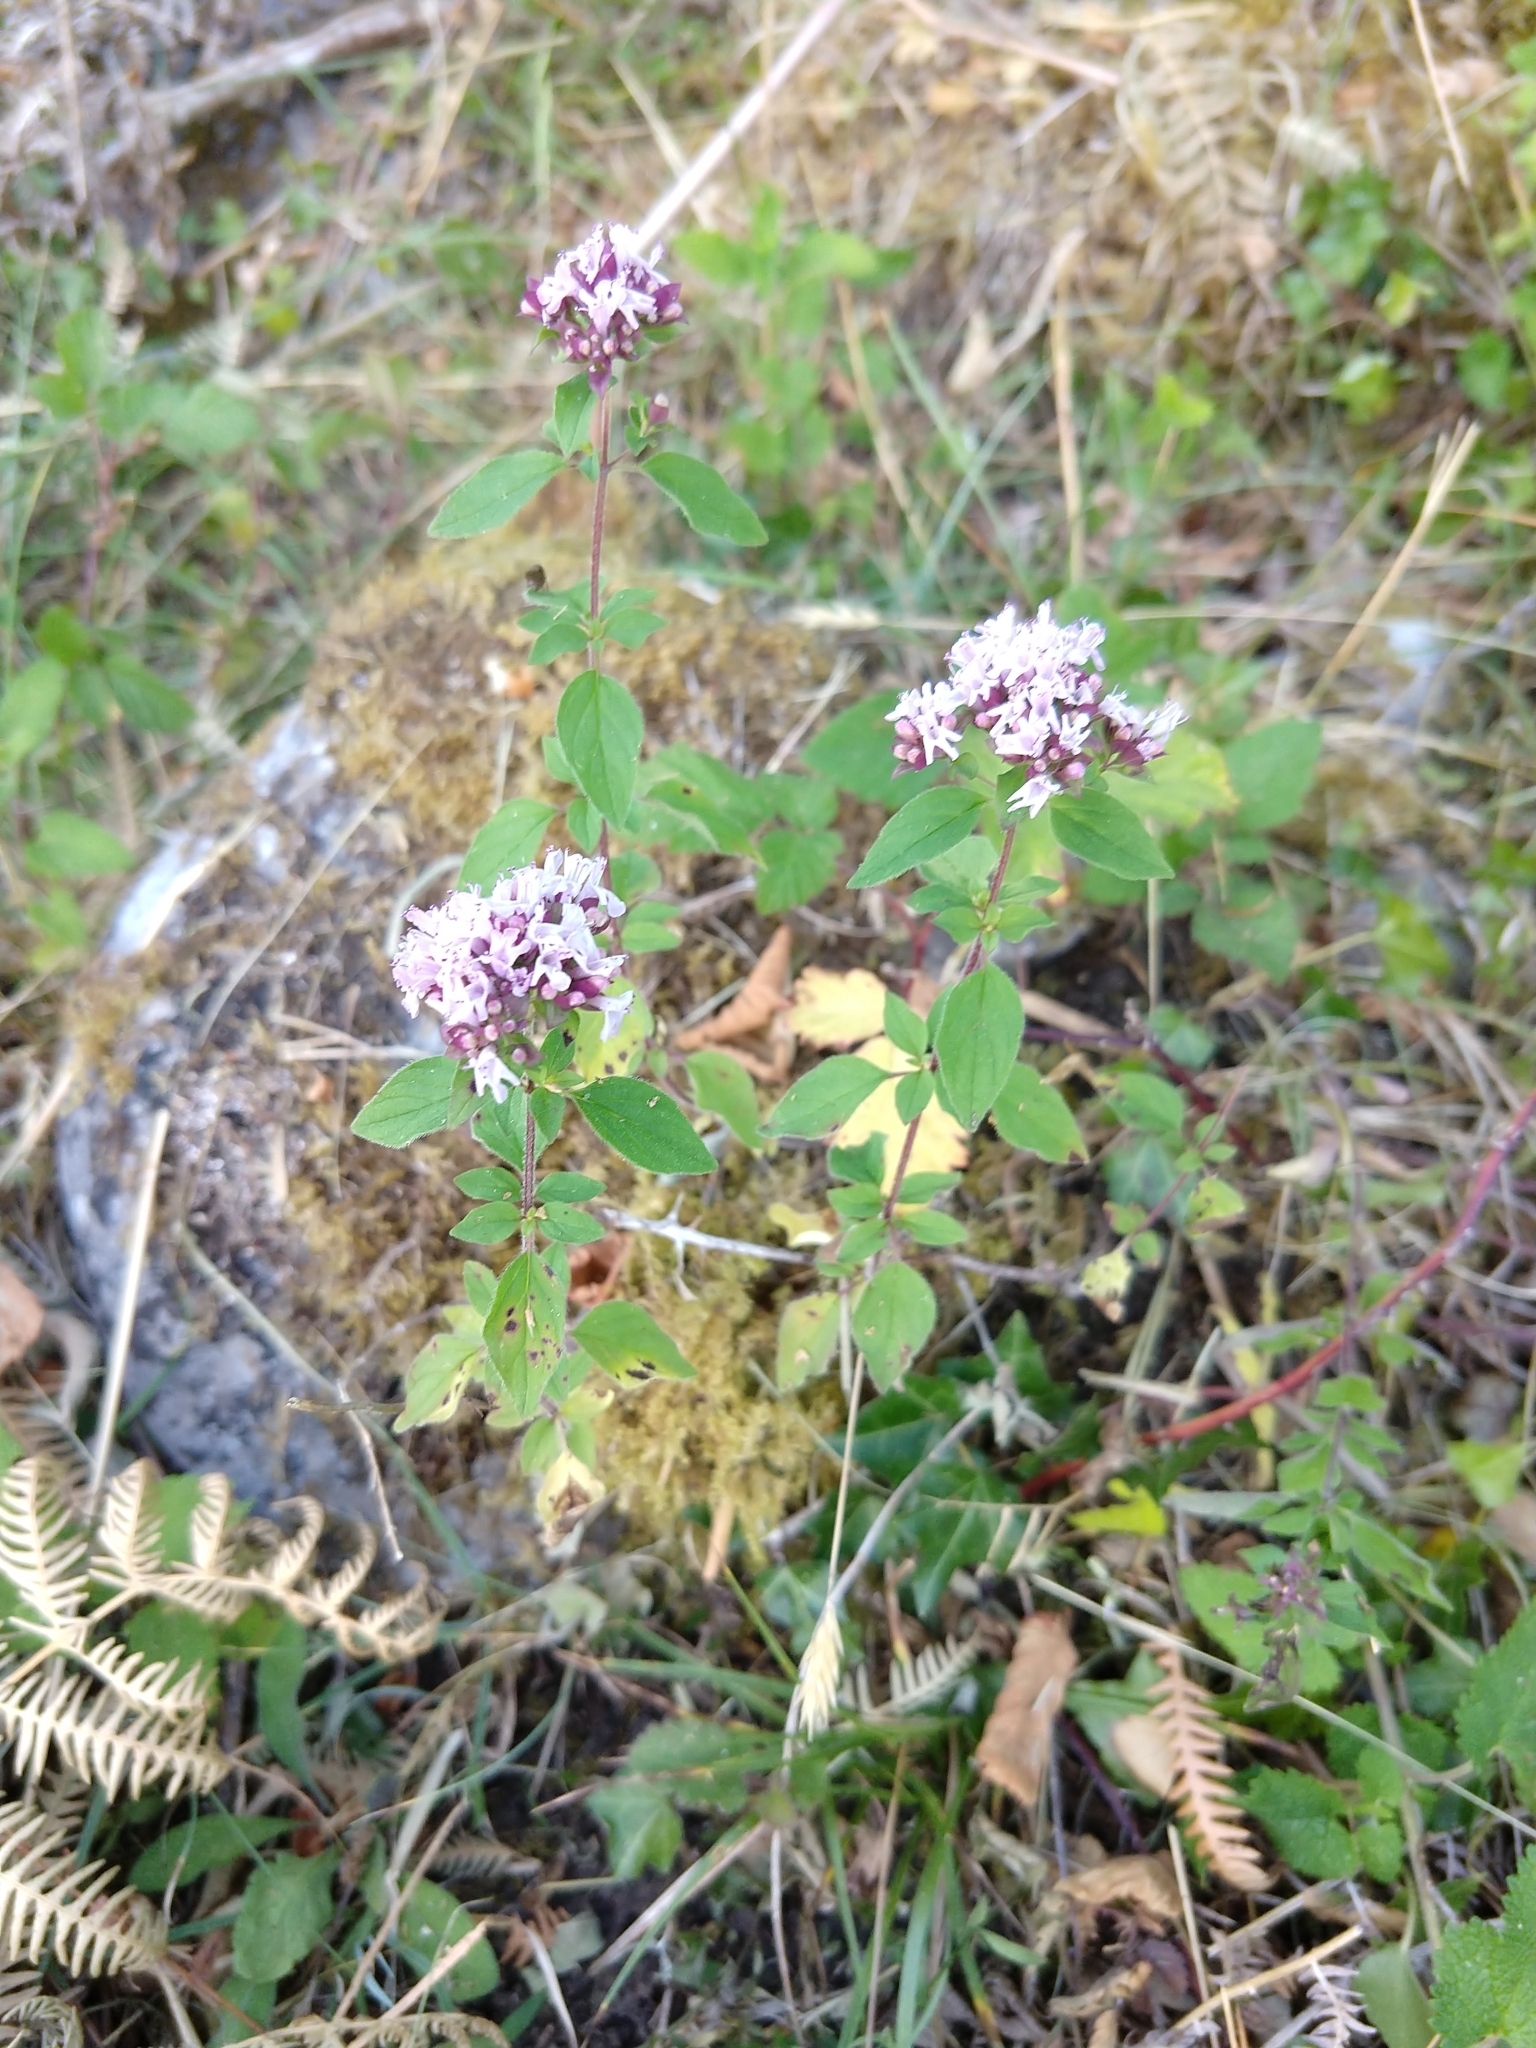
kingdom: Plantae
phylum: Tracheophyta
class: Magnoliopsida
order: Lamiales
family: Lamiaceae
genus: Origanum
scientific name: Origanum vulgare
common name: Wild marjoram
